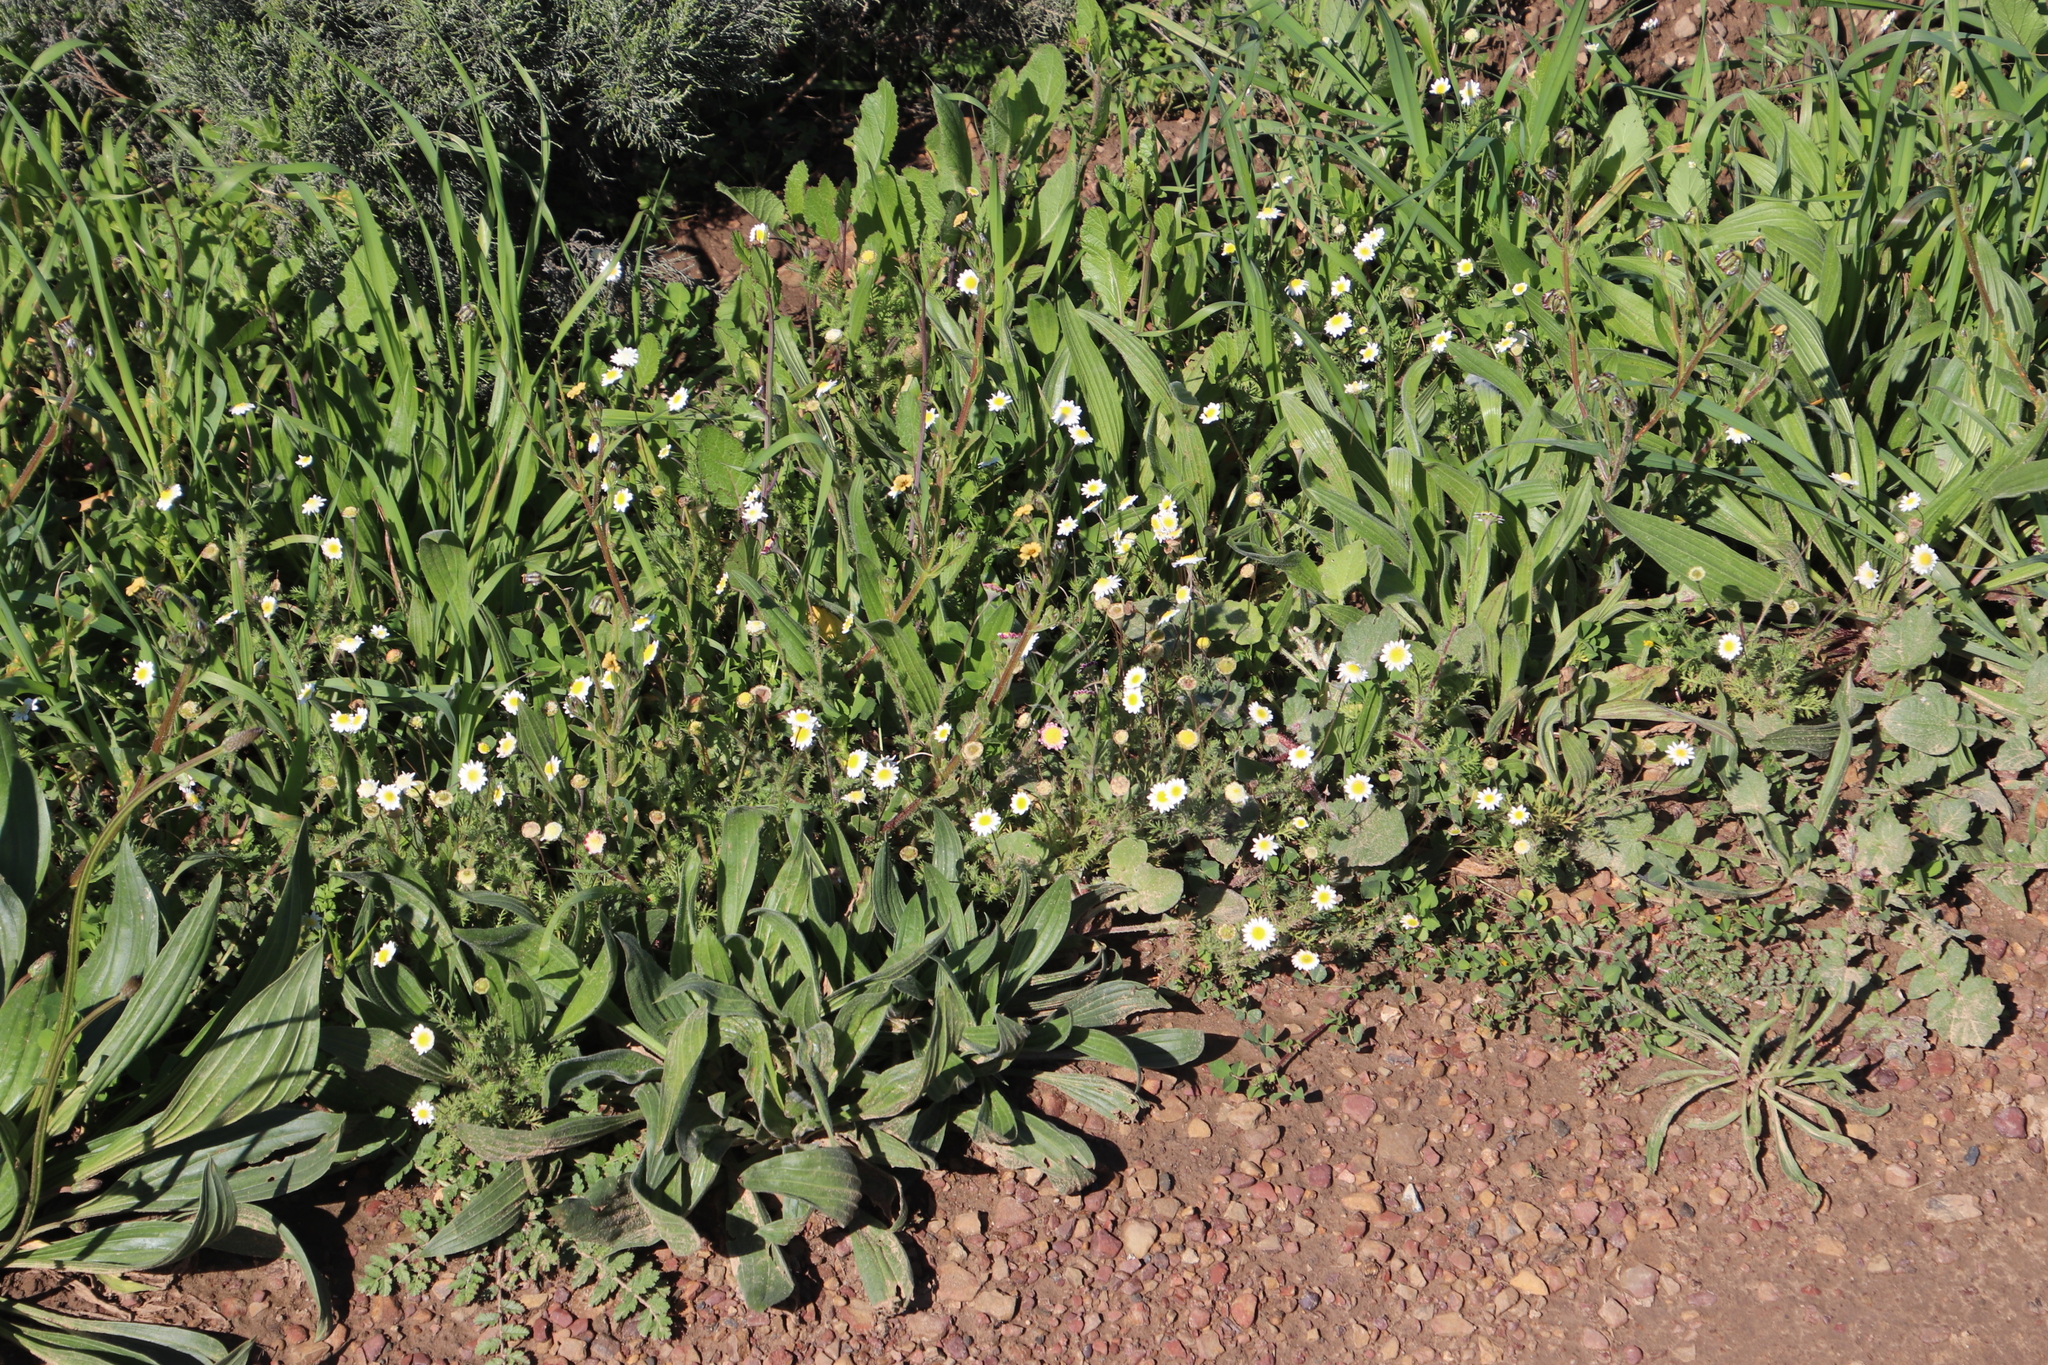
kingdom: Plantae
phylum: Tracheophyta
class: Magnoliopsida
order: Asterales
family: Asteraceae
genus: Cotula
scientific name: Cotula turbinata
